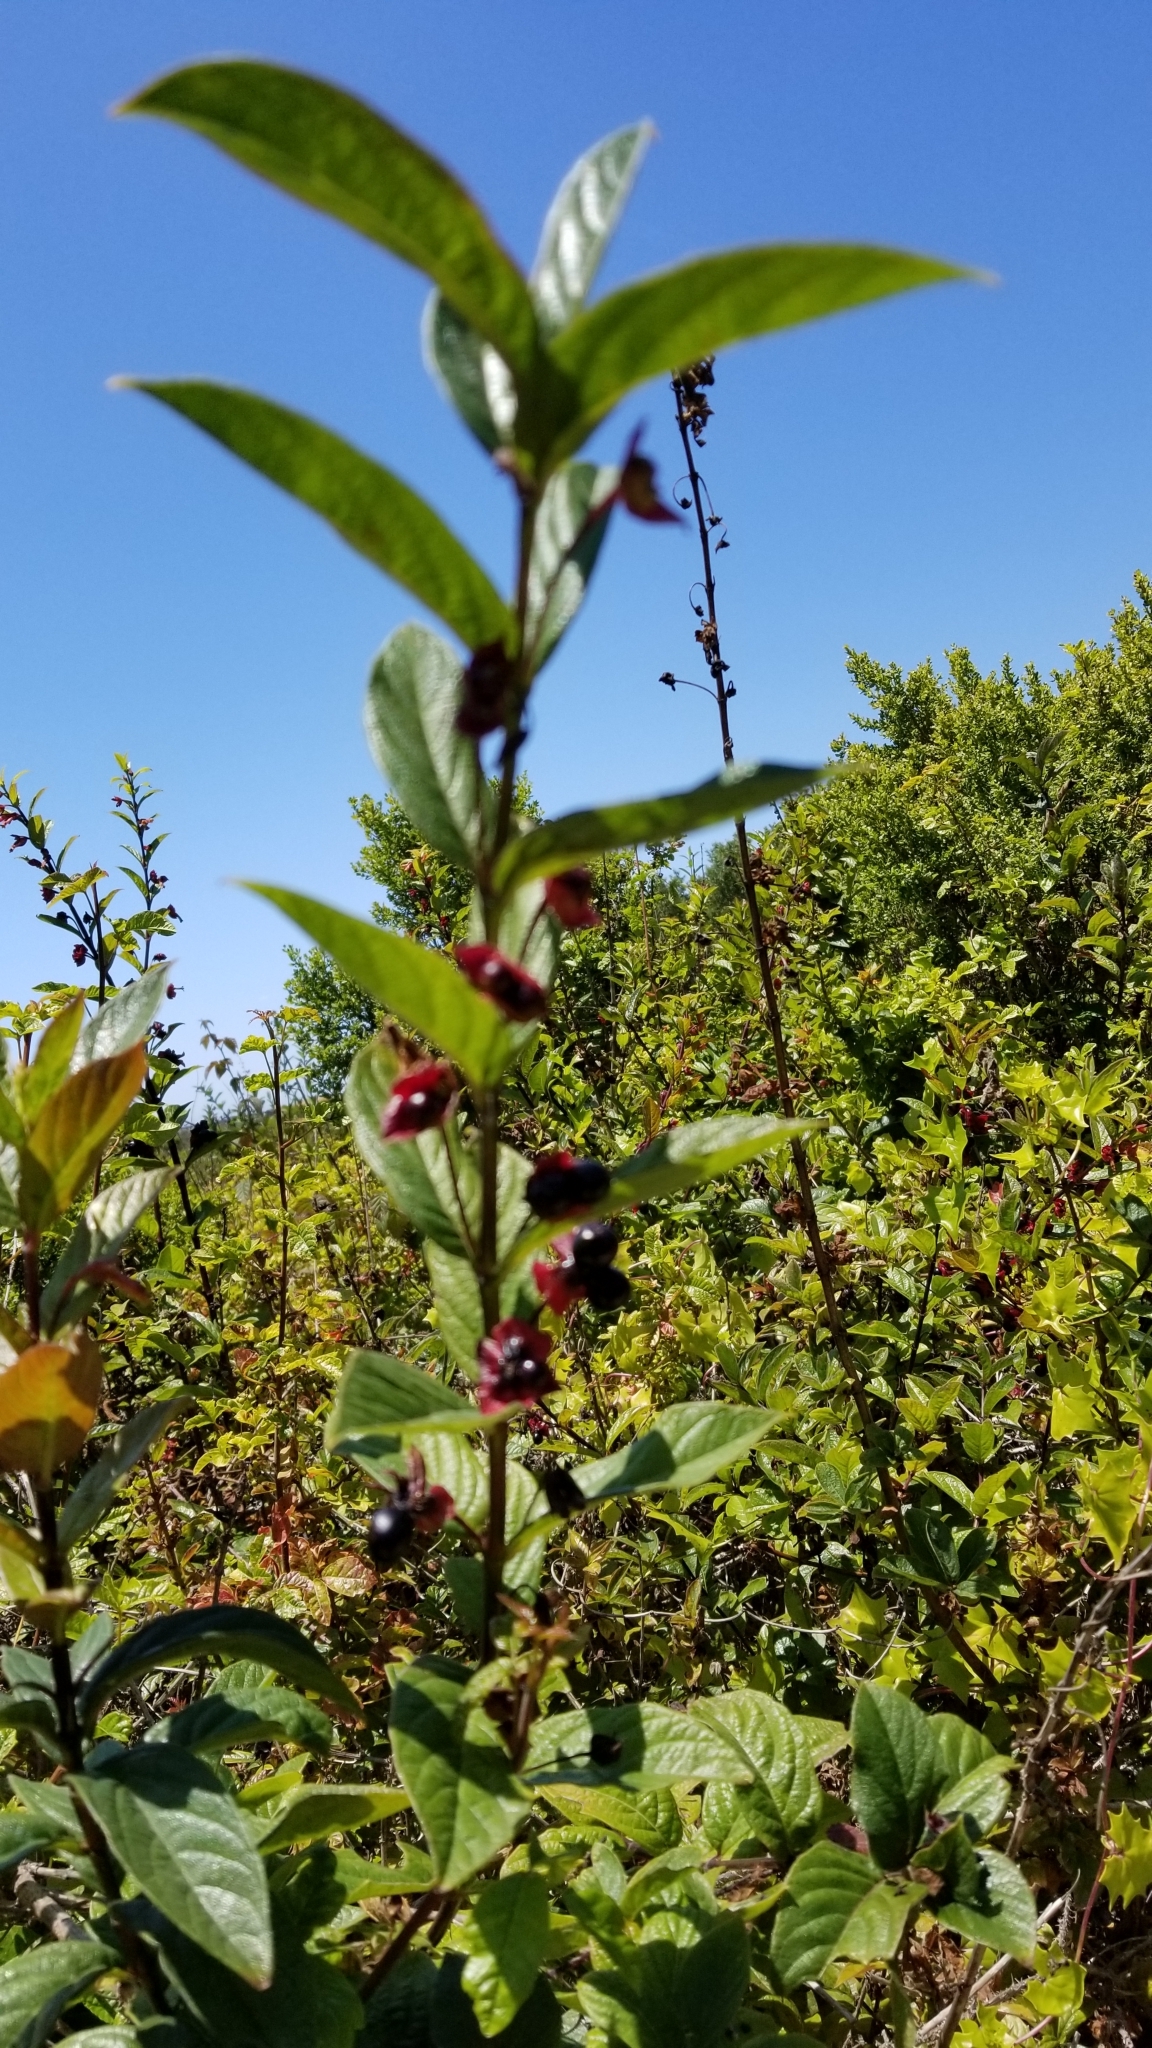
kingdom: Plantae
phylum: Tracheophyta
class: Magnoliopsida
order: Dipsacales
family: Caprifoliaceae
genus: Lonicera
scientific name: Lonicera involucrata
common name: Californian honeysuckle
